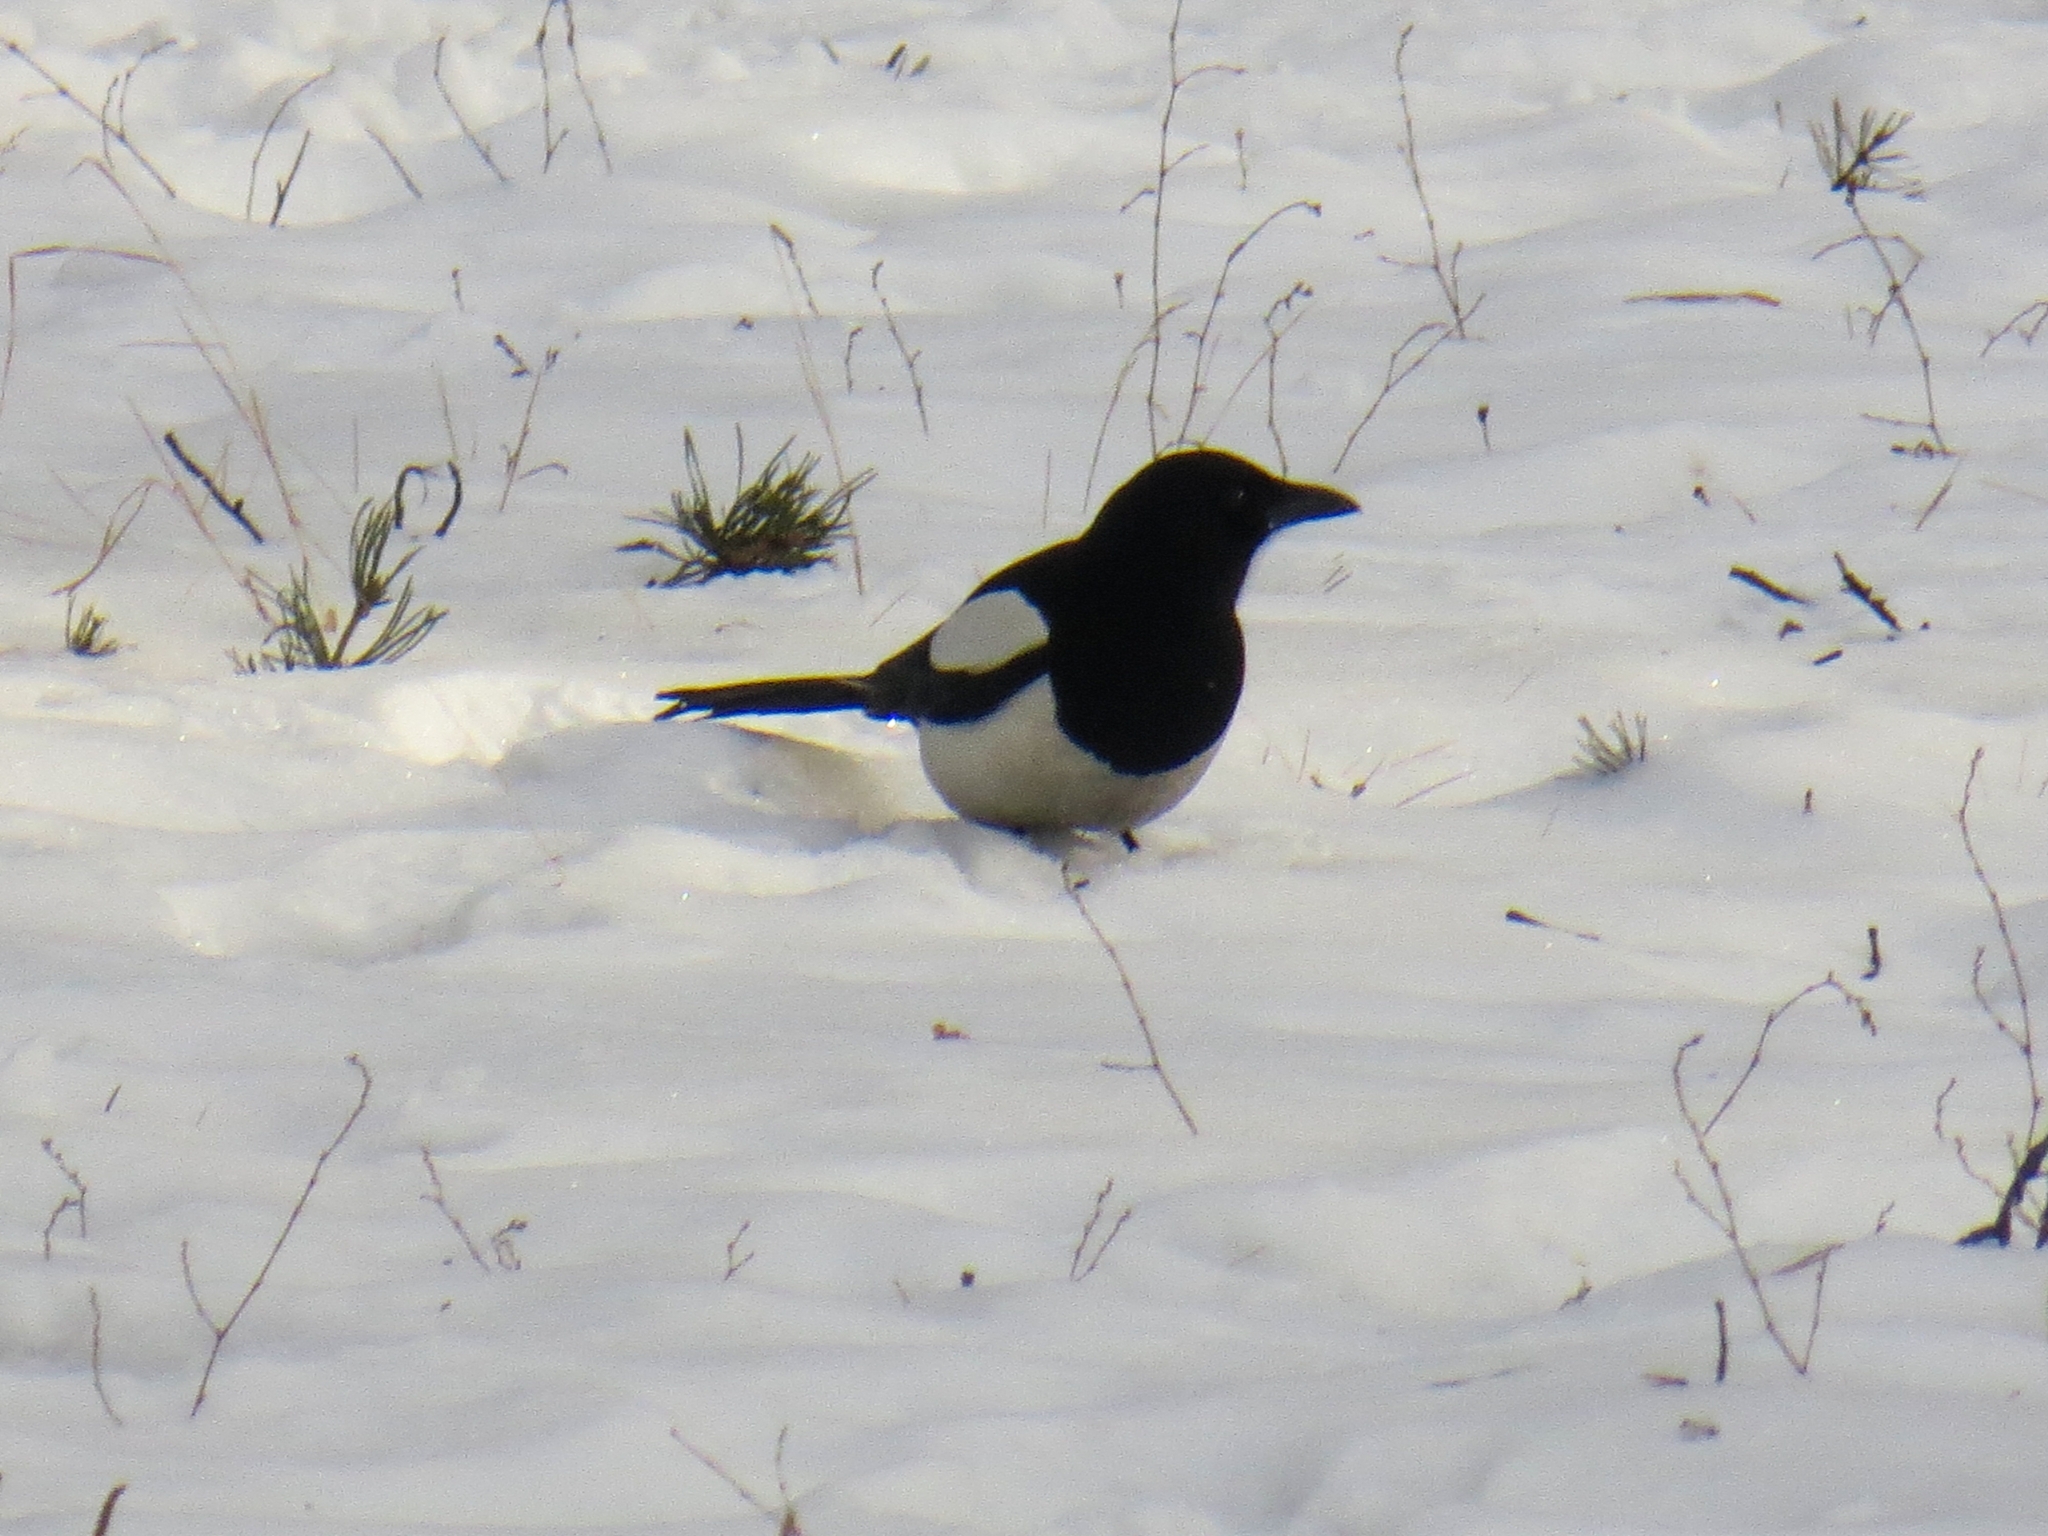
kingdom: Animalia
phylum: Chordata
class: Aves
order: Passeriformes
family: Corvidae
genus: Pica
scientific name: Pica pica
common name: Eurasian magpie
